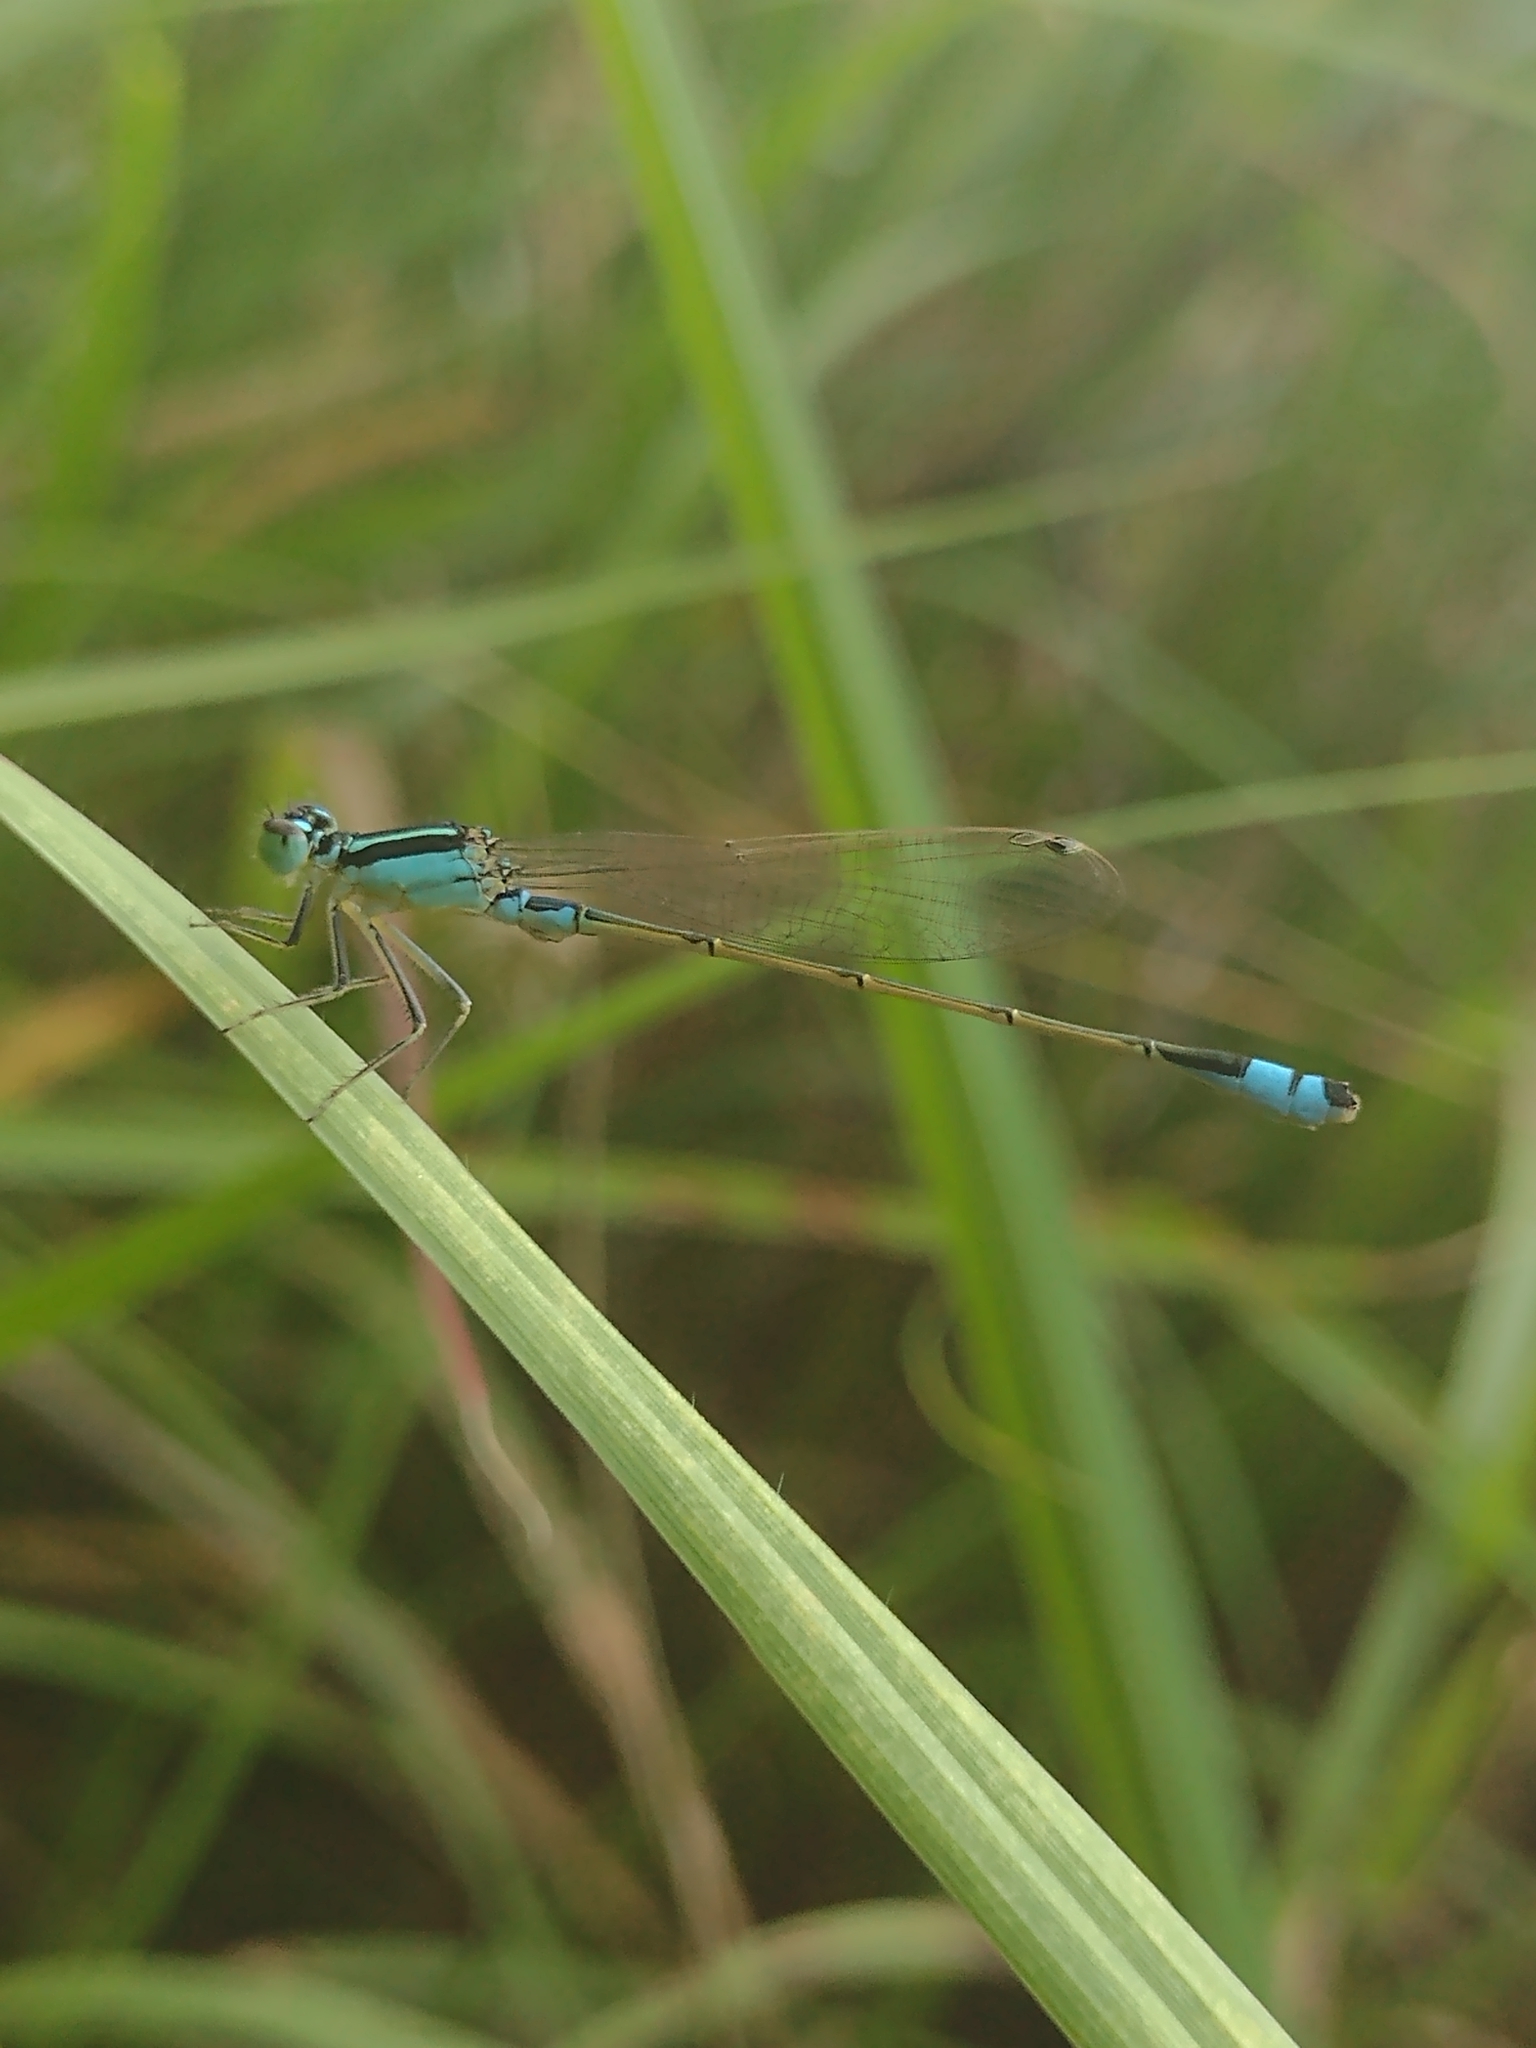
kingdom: Animalia
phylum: Arthropoda
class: Insecta
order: Odonata
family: Coenagrionidae
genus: Ischnura
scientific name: Ischnura fluviatilis
